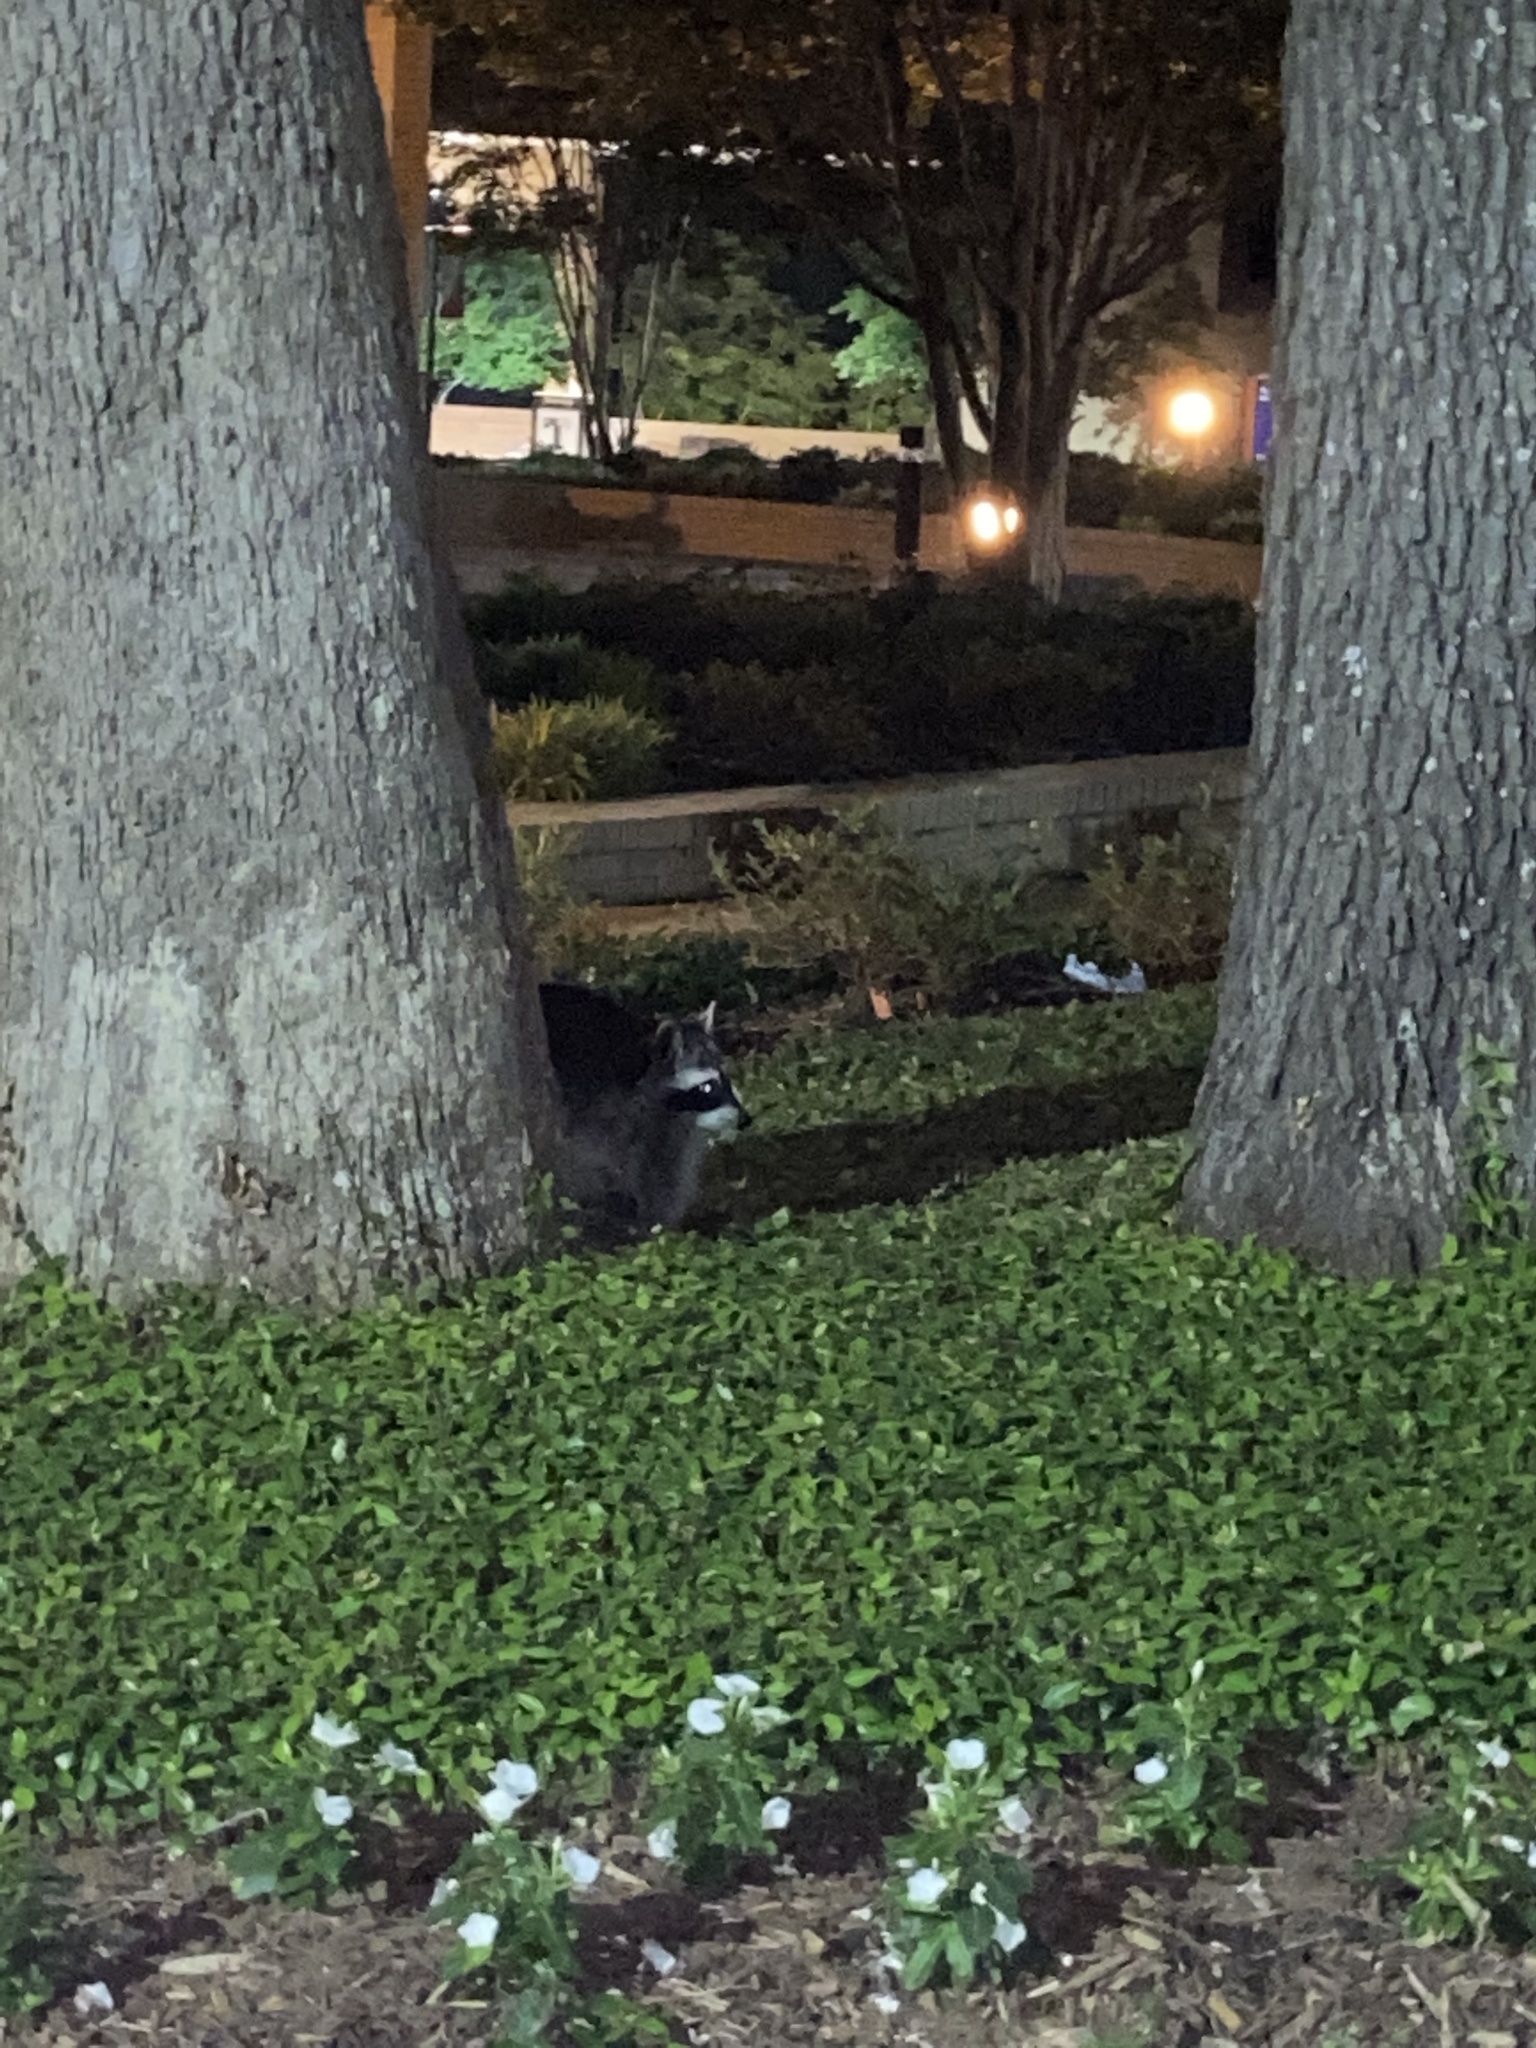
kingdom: Animalia
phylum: Chordata
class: Mammalia
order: Carnivora
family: Procyonidae
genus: Procyon
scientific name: Procyon lotor
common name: Raccoon
